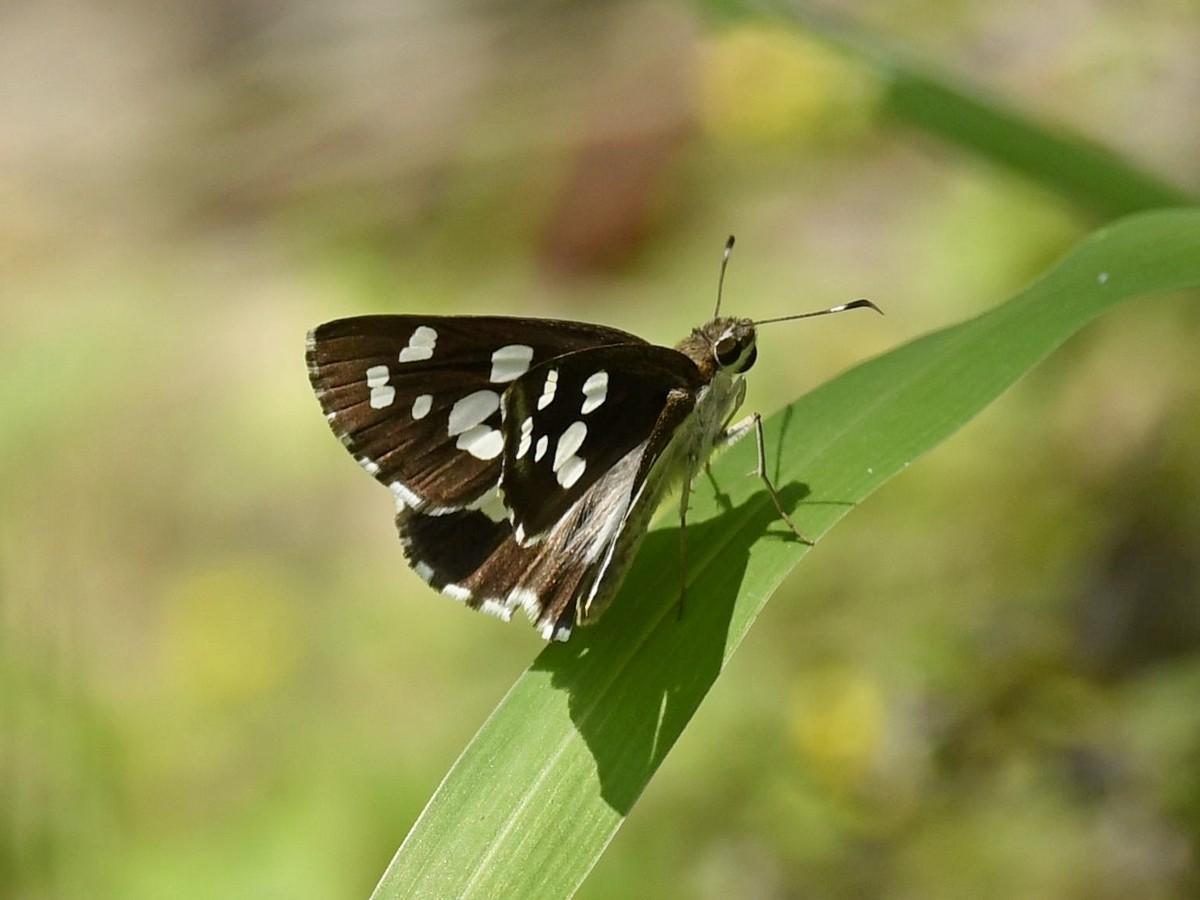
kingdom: Animalia
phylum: Arthropoda
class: Insecta
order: Lepidoptera
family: Hesperiidae
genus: Udaspes
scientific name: Udaspes folus
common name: Grass demon
